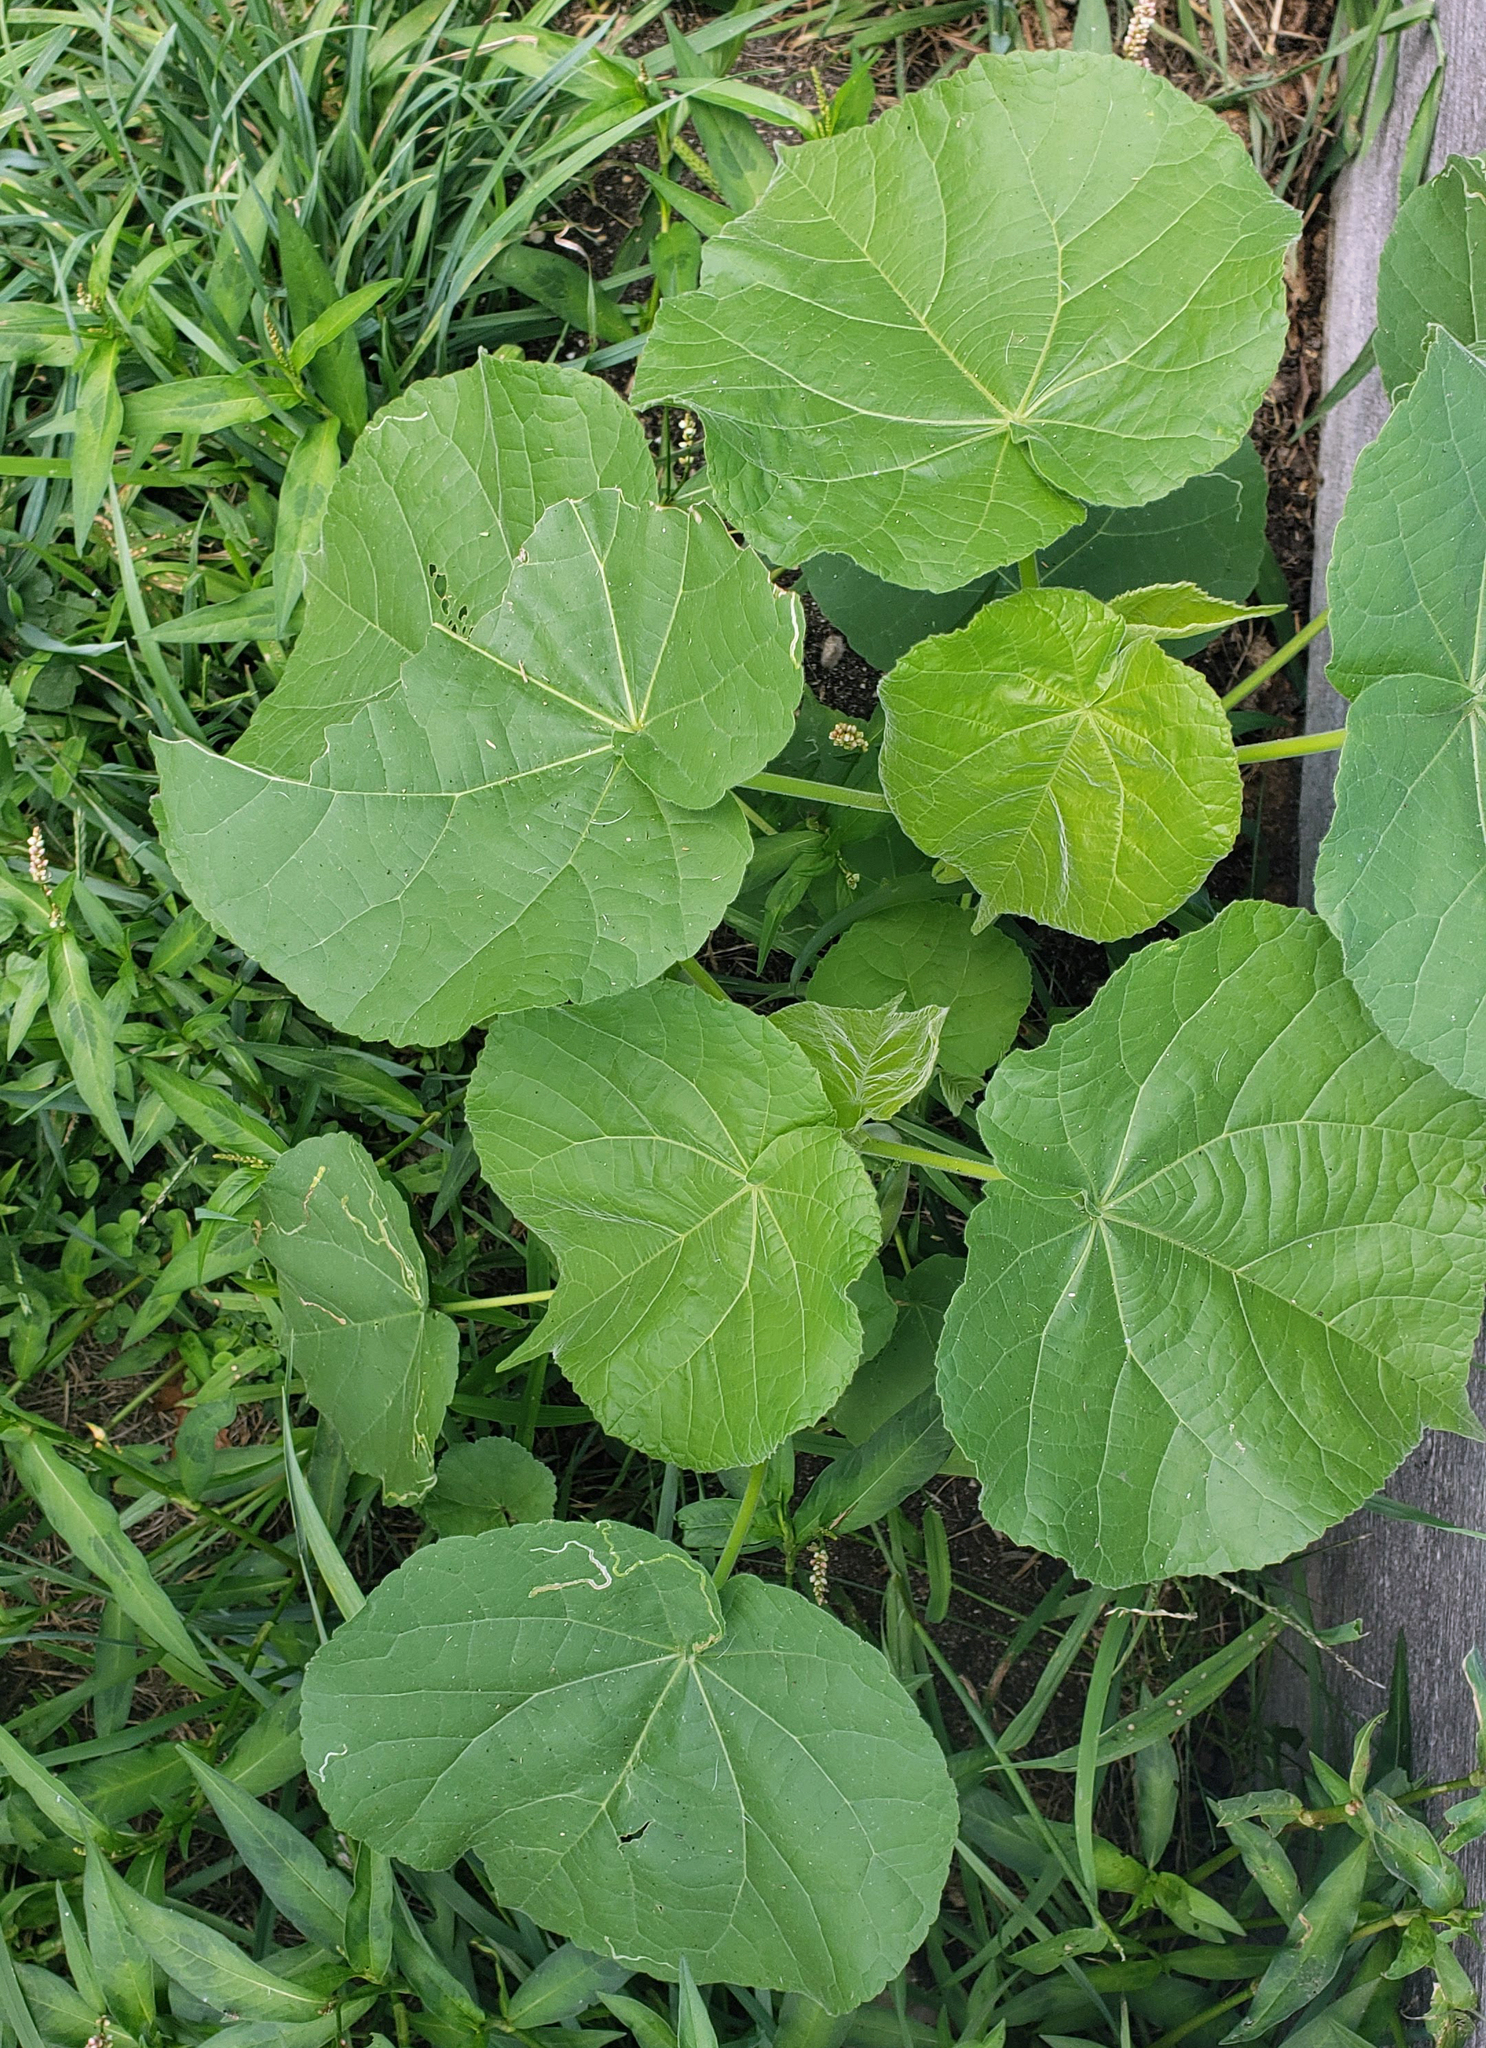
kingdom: Plantae
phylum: Tracheophyta
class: Magnoliopsida
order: Malvales
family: Malvaceae
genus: Abutilon
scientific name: Abutilon theophrasti
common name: Velvetleaf
